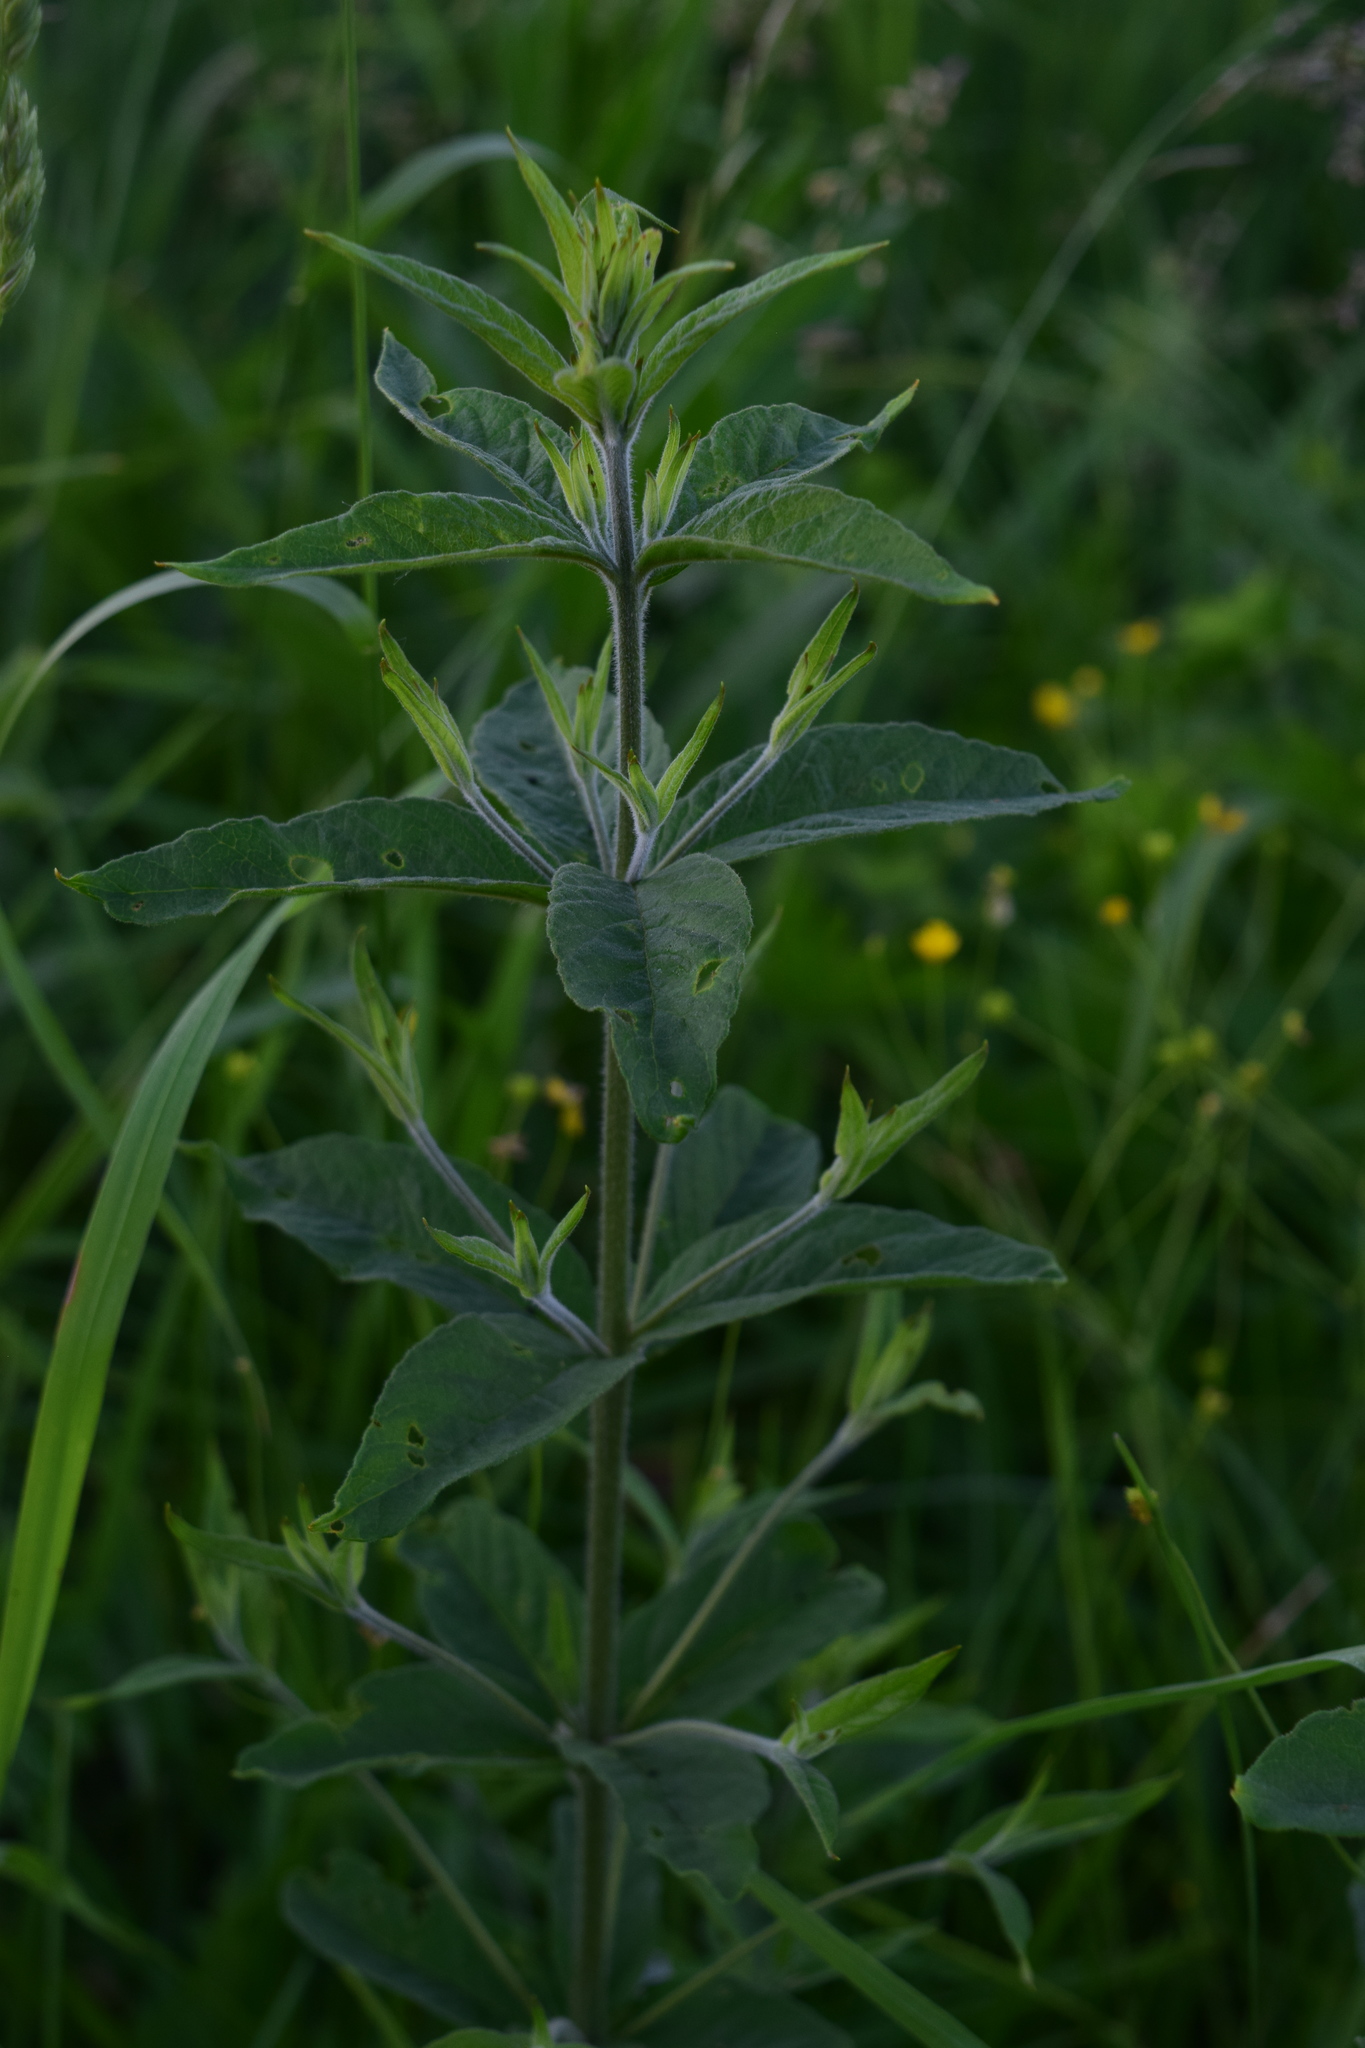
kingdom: Plantae
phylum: Tracheophyta
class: Magnoliopsida
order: Ericales
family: Primulaceae
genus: Lysimachia
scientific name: Lysimachia vulgaris
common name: Yellow loosestrife
